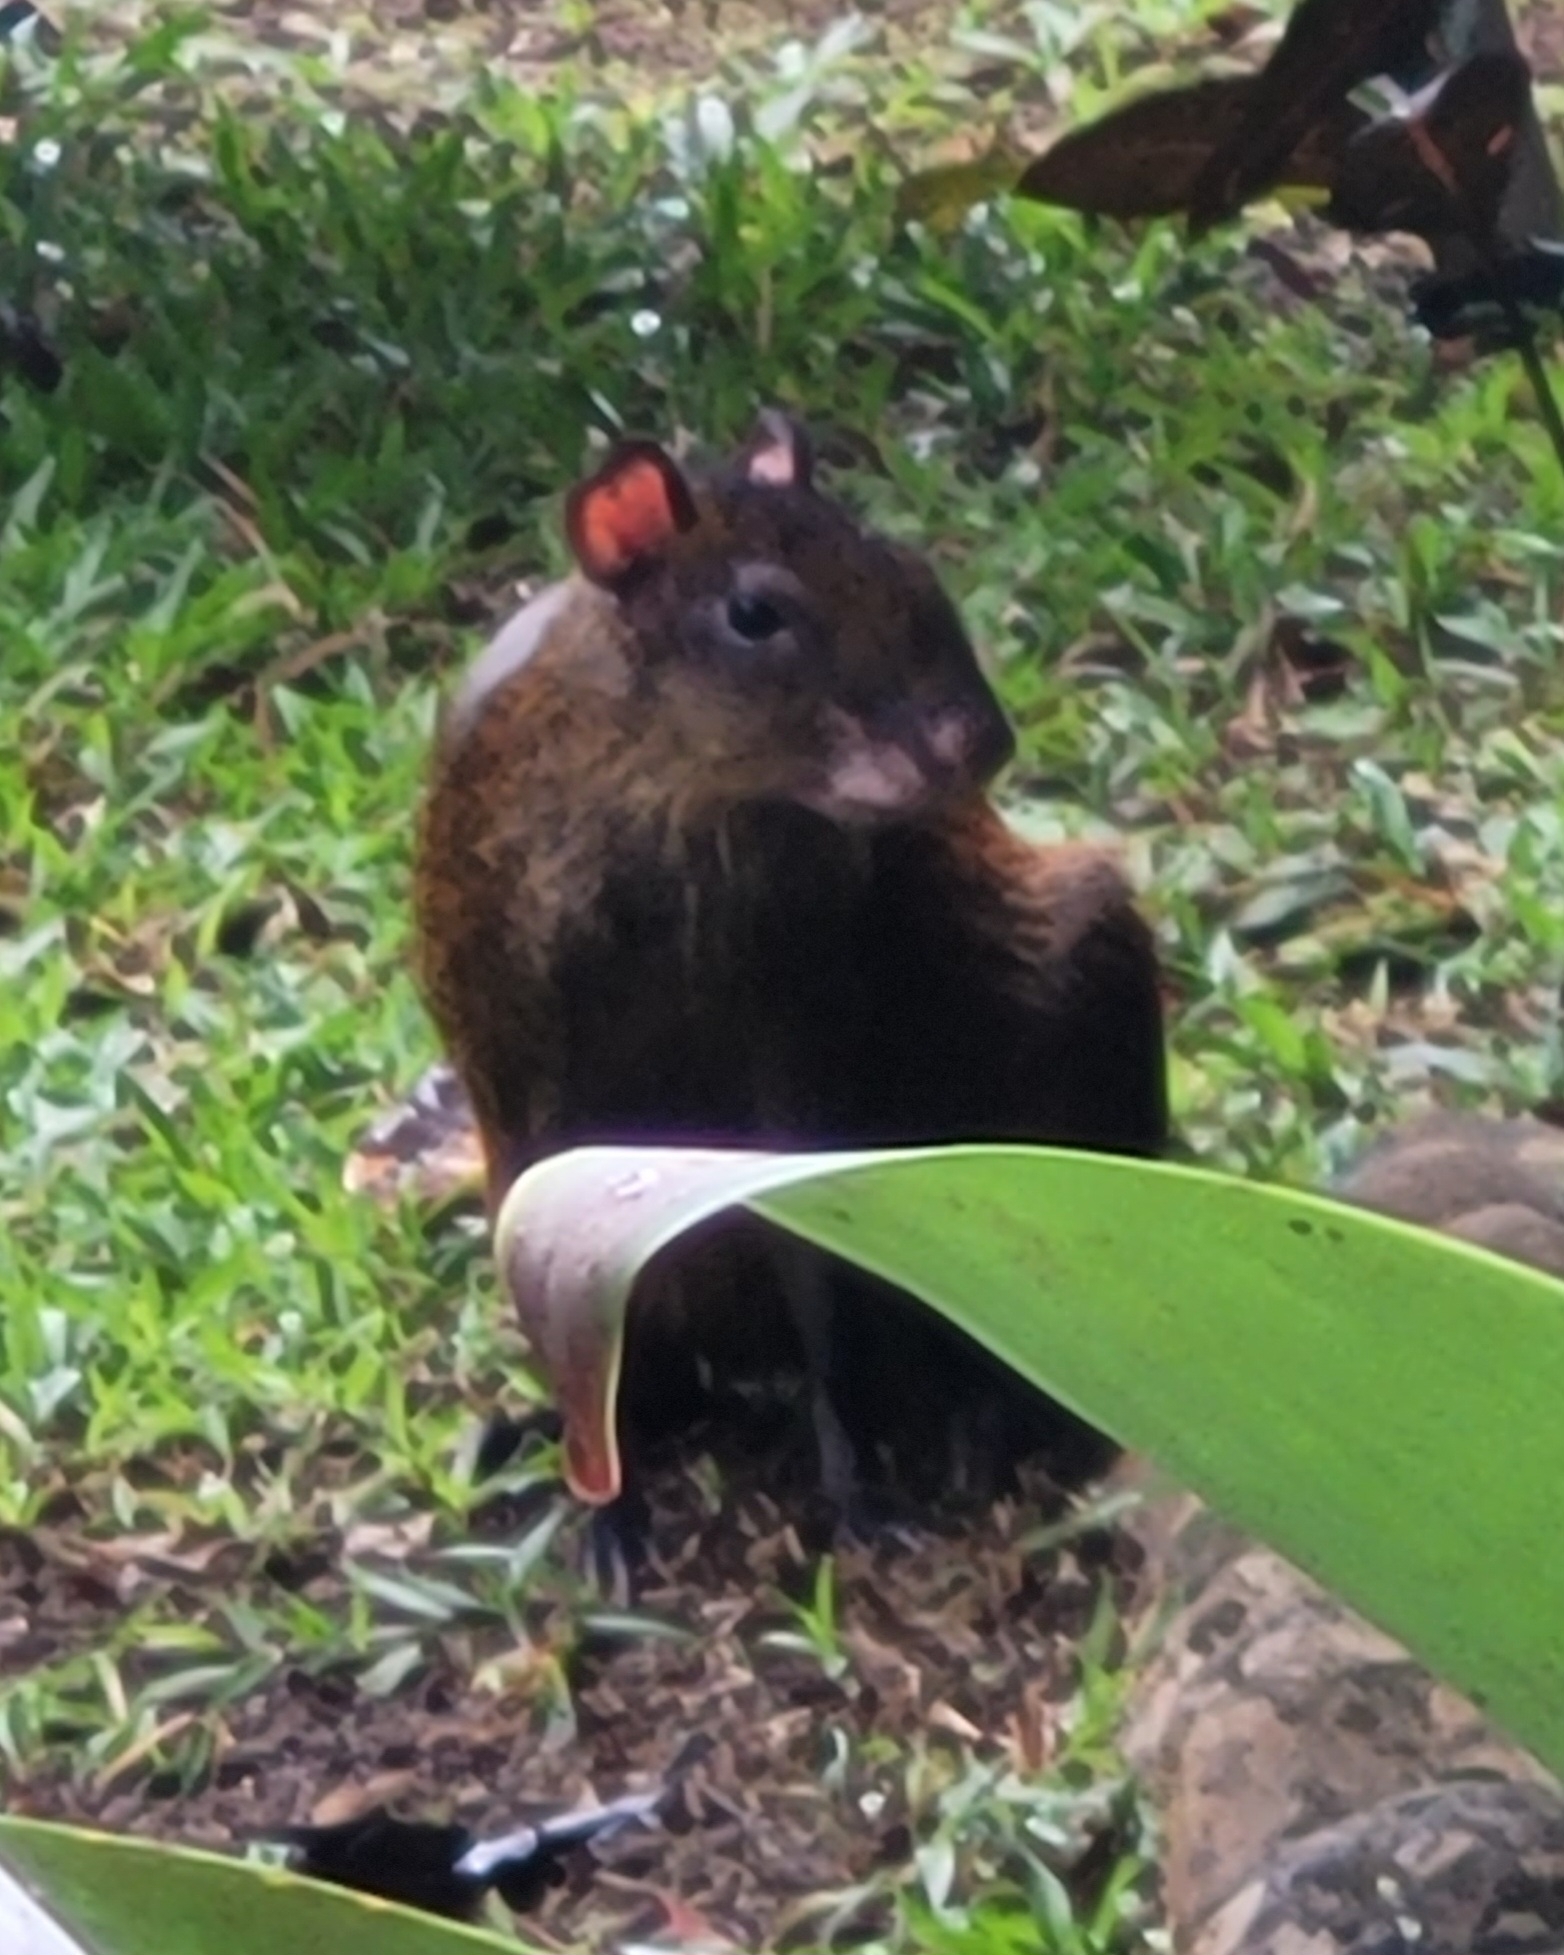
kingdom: Animalia
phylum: Chordata
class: Mammalia
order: Rodentia
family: Dasyproctidae
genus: Dasyprocta
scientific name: Dasyprocta punctata
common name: Central american agouti
